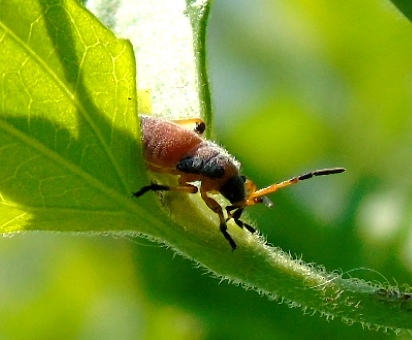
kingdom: Animalia
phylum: Arthropoda
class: Insecta
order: Hemiptera
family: Largidae
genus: Largus
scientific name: Largus
